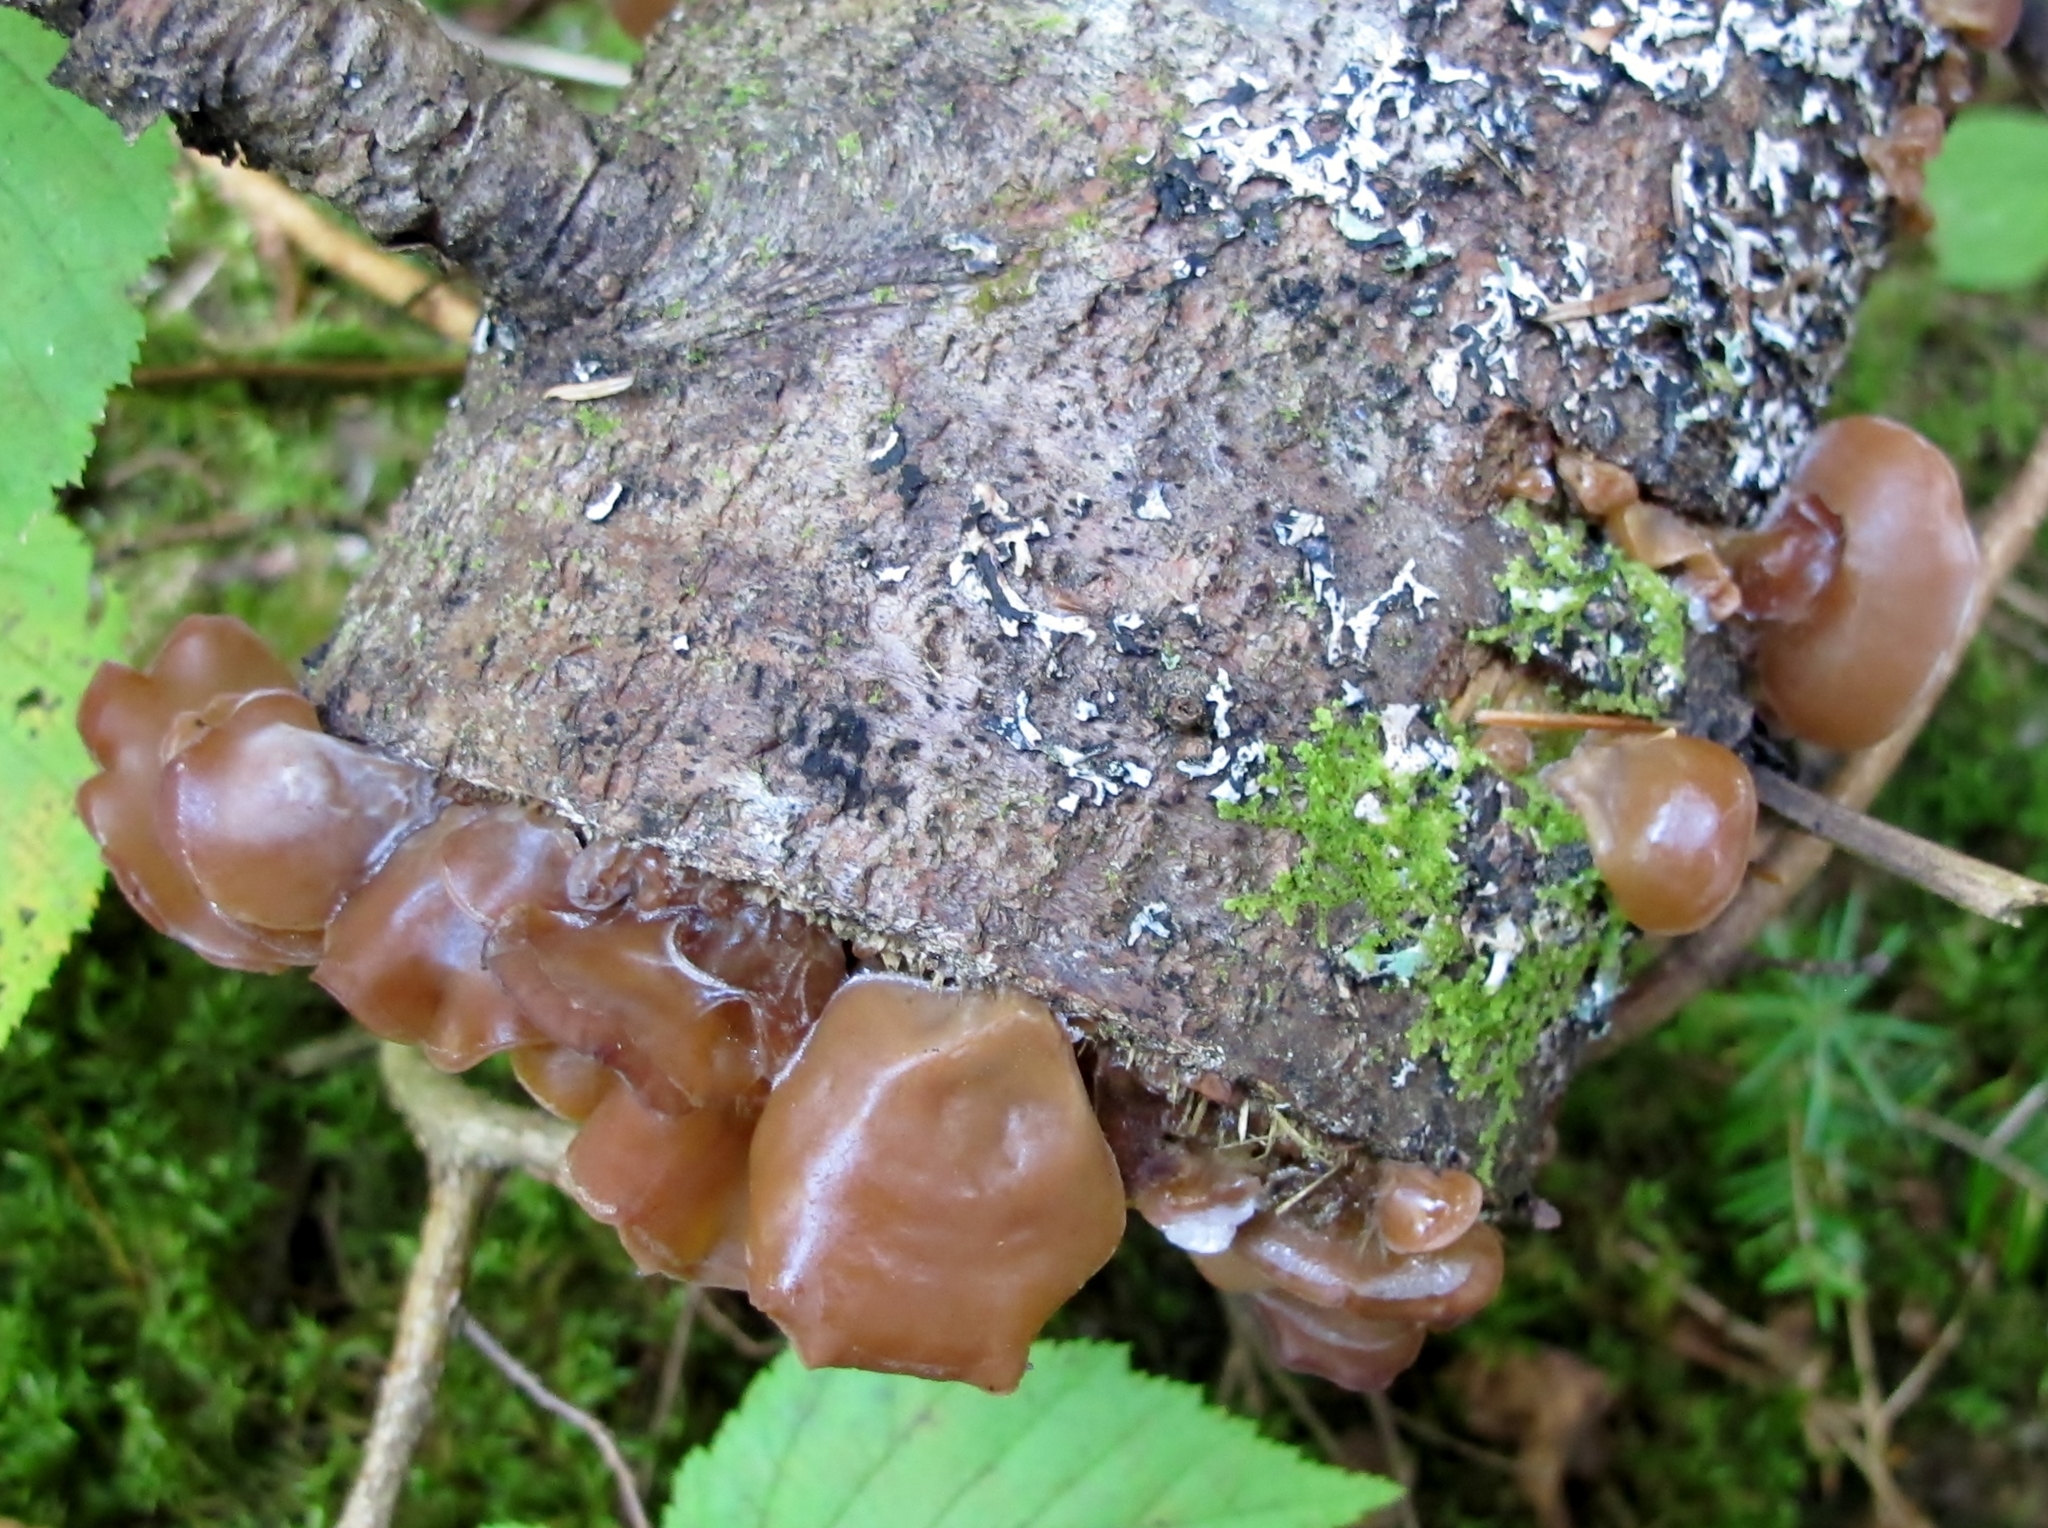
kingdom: Fungi
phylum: Basidiomycota
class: Agaricomycetes
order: Auriculariales
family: Auriculariaceae
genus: Auricularia
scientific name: Auricularia americana
